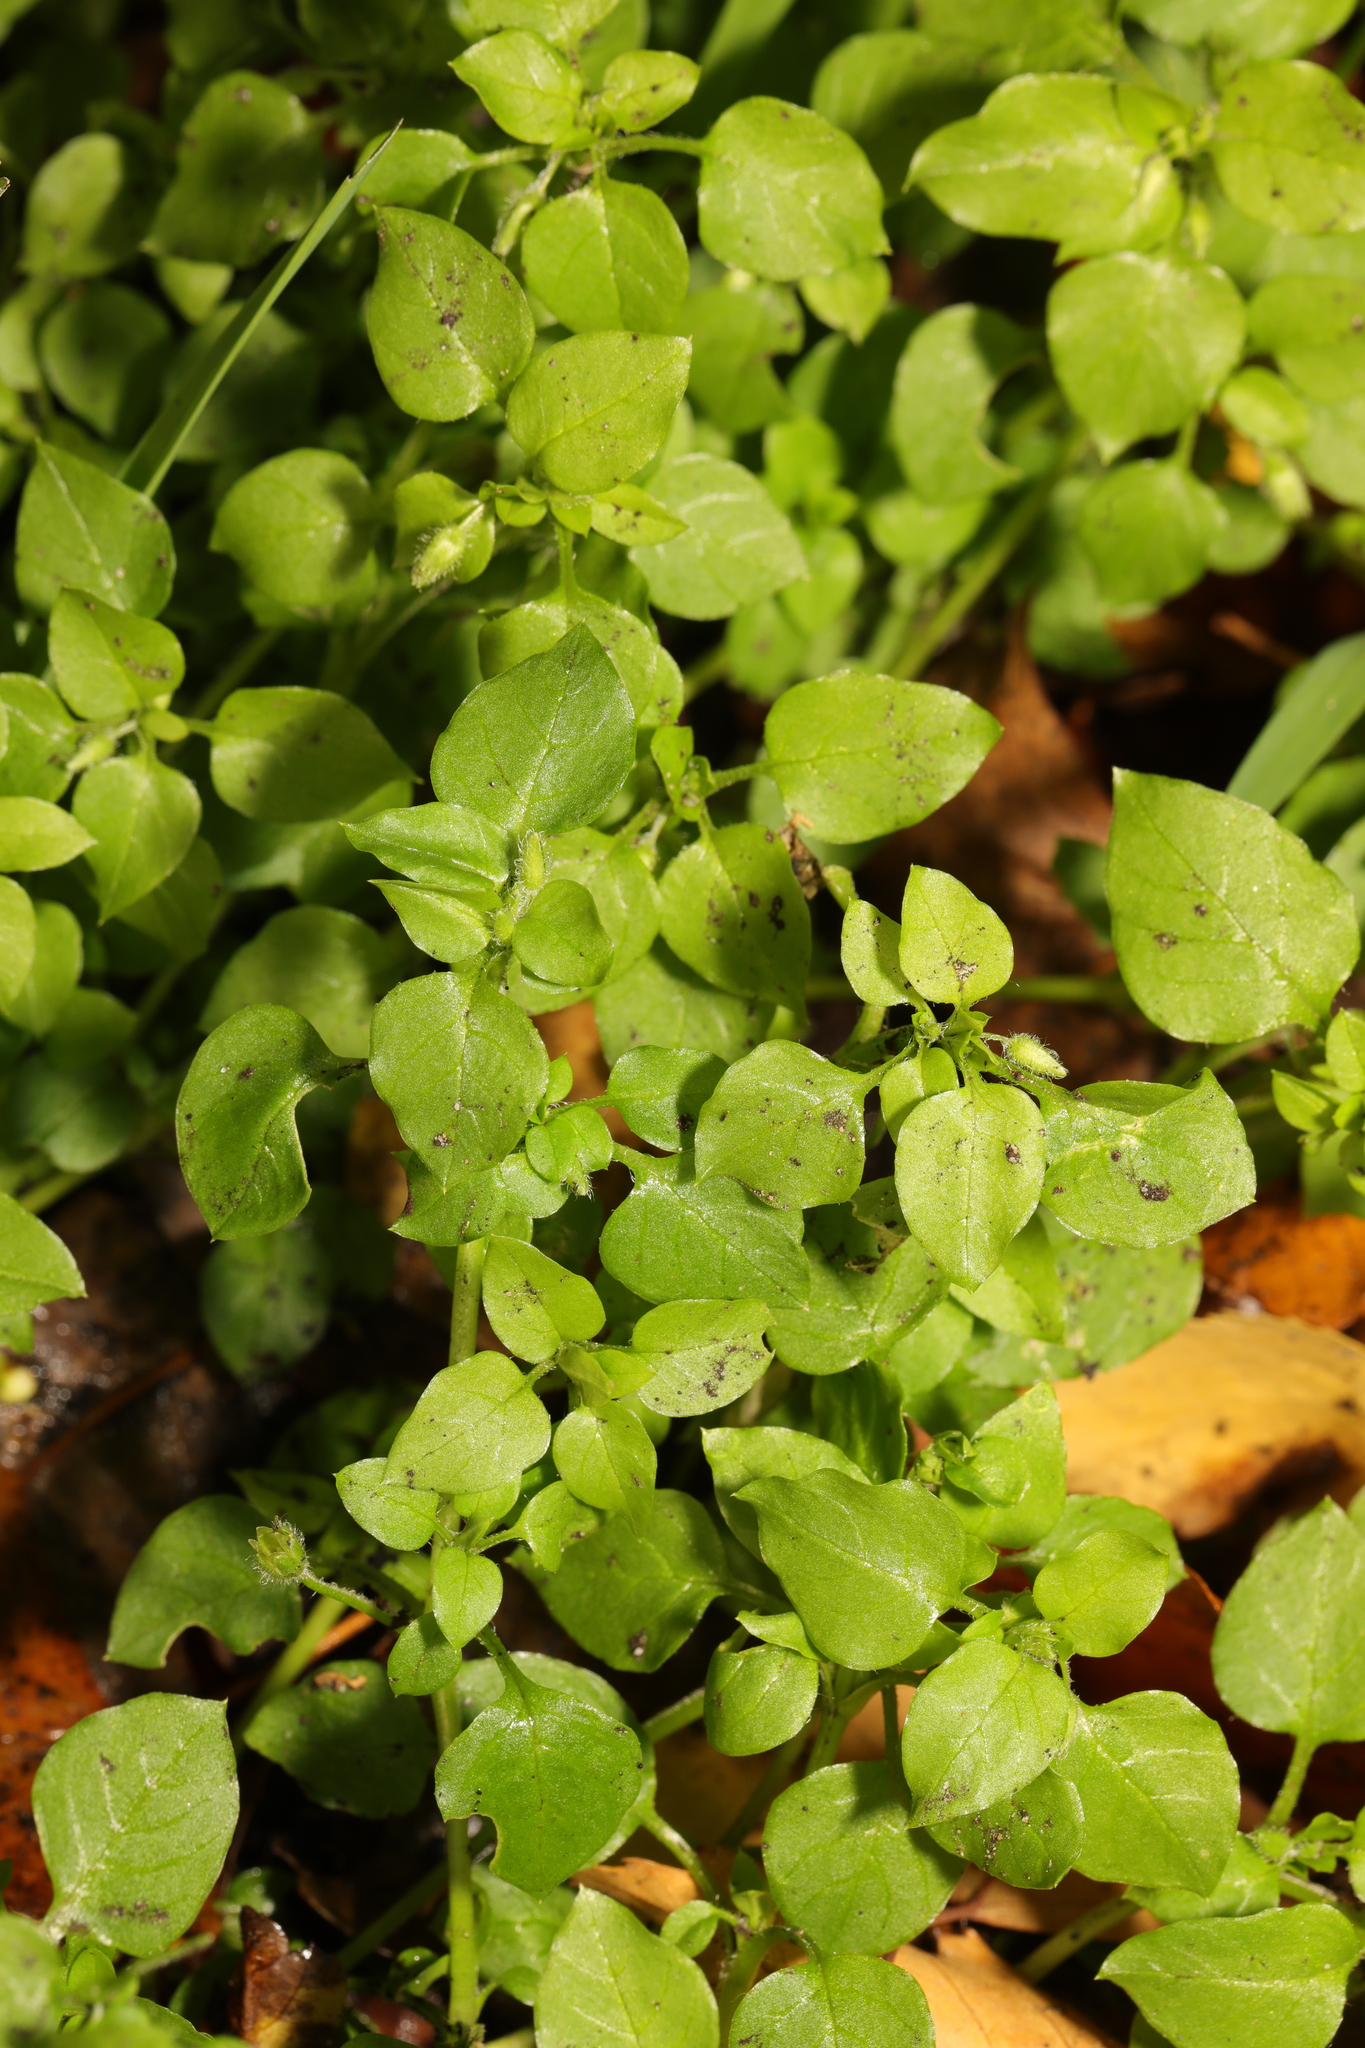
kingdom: Plantae
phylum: Tracheophyta
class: Magnoliopsida
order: Caryophyllales
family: Caryophyllaceae
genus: Stellaria
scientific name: Stellaria media
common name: Common chickweed
